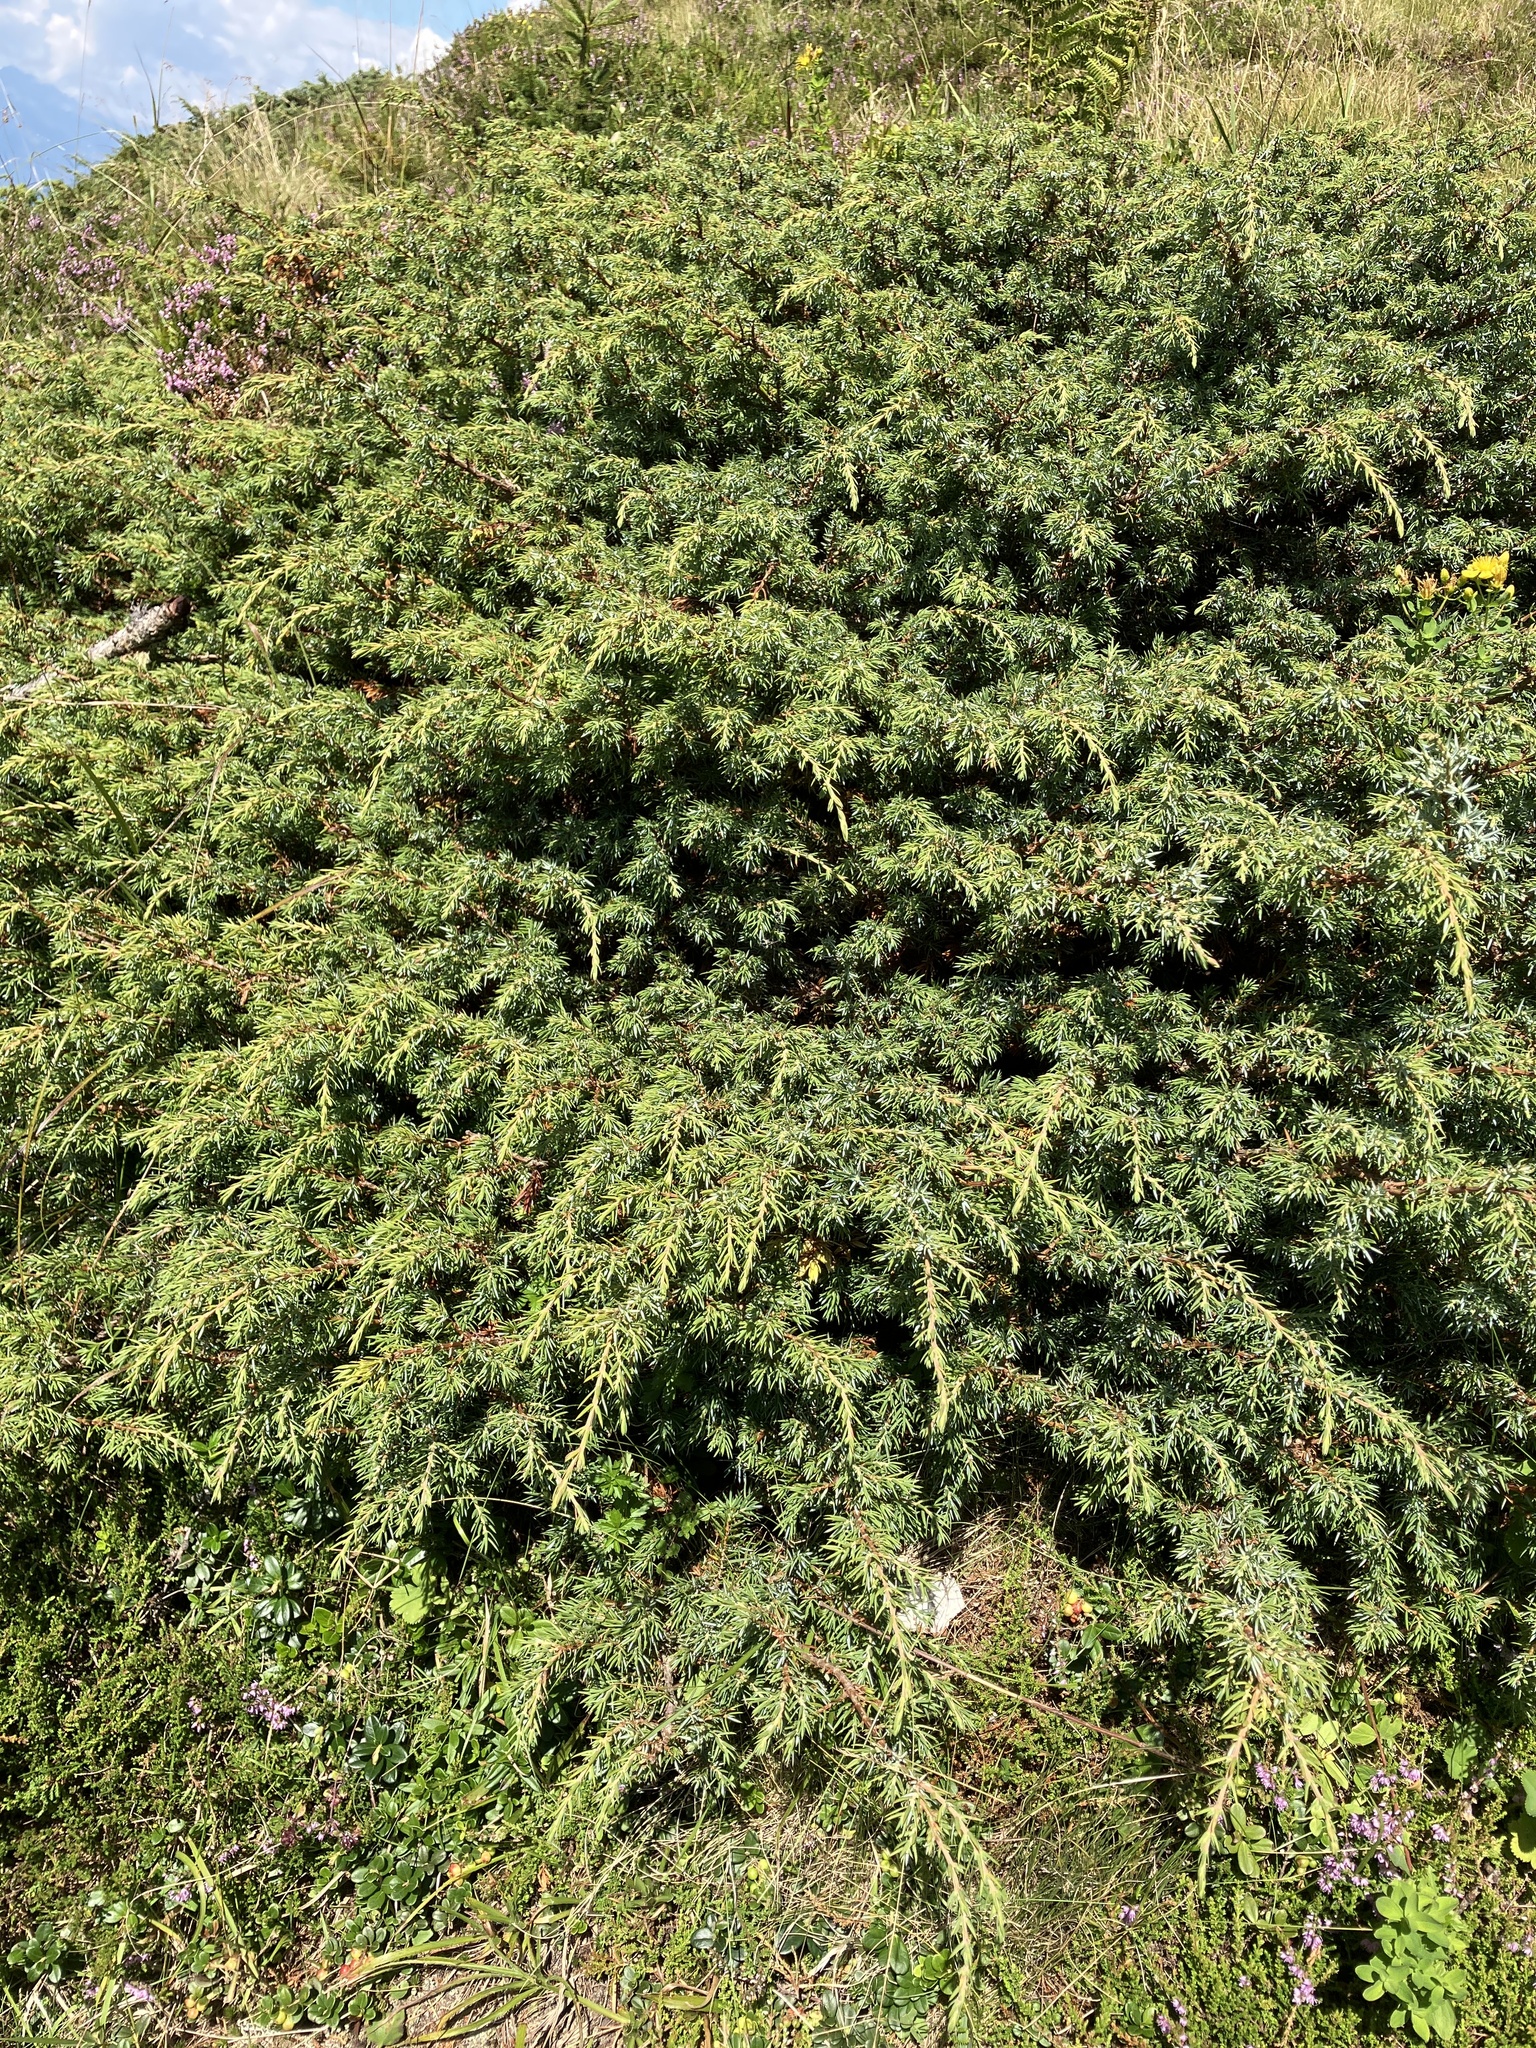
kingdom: Plantae
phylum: Tracheophyta
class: Pinopsida
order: Pinales
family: Cupressaceae
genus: Juniperus
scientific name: Juniperus communis
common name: Common juniper
